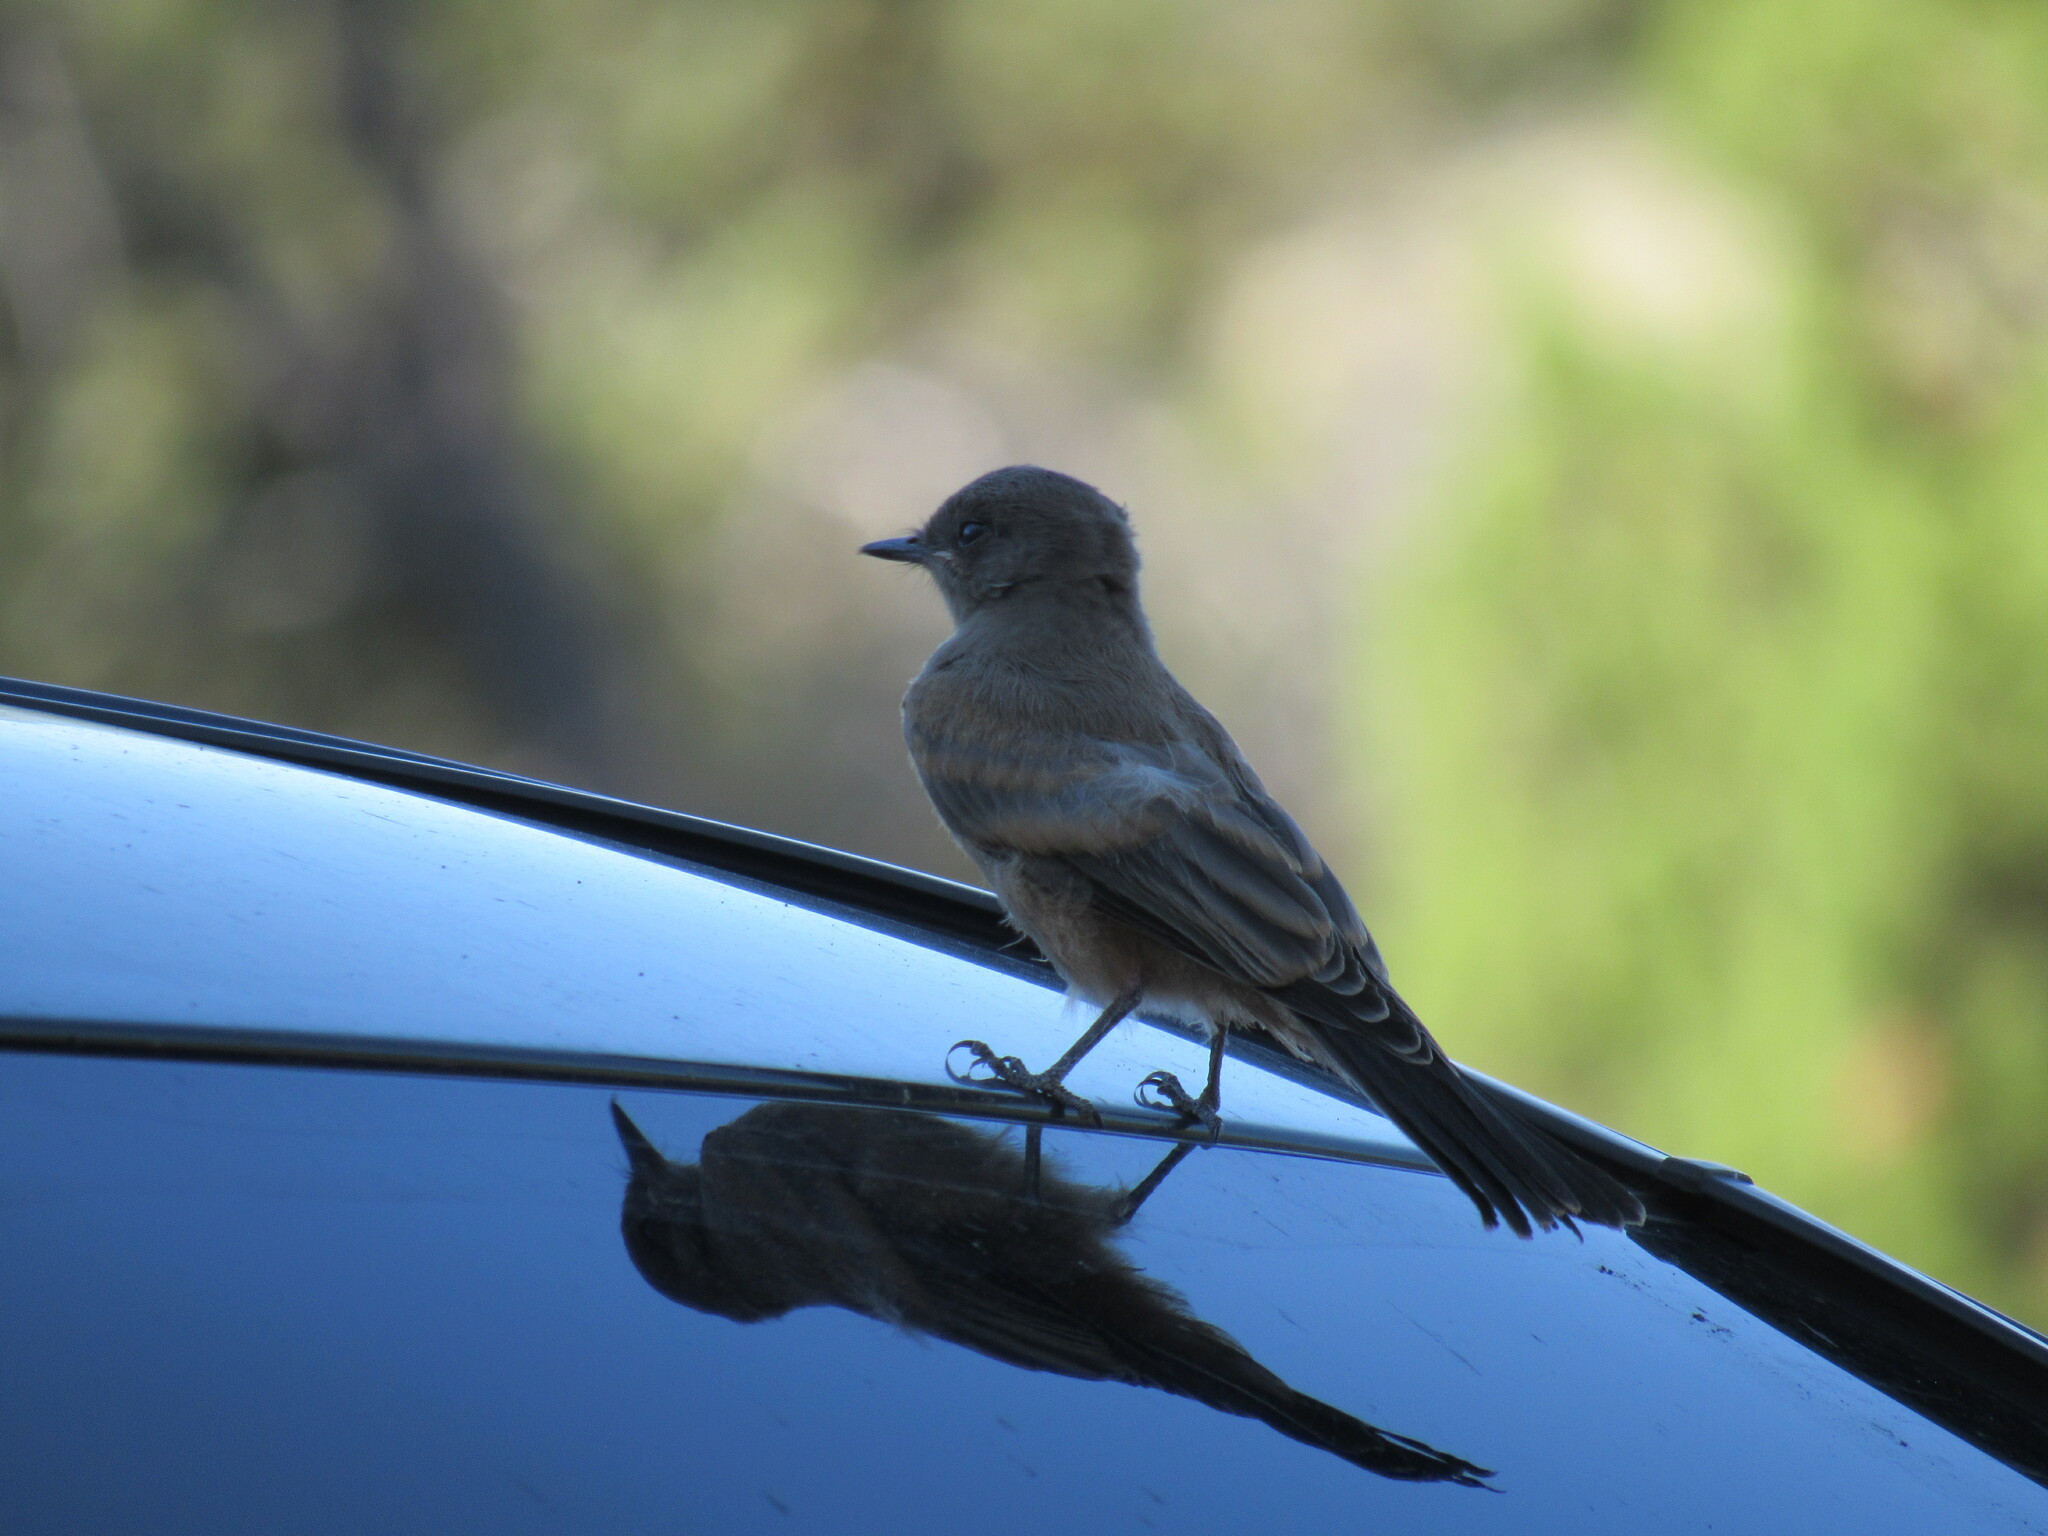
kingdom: Animalia
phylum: Chordata
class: Aves
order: Passeriformes
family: Tyrannidae
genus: Sayornis
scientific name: Sayornis saya
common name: Say's phoebe
